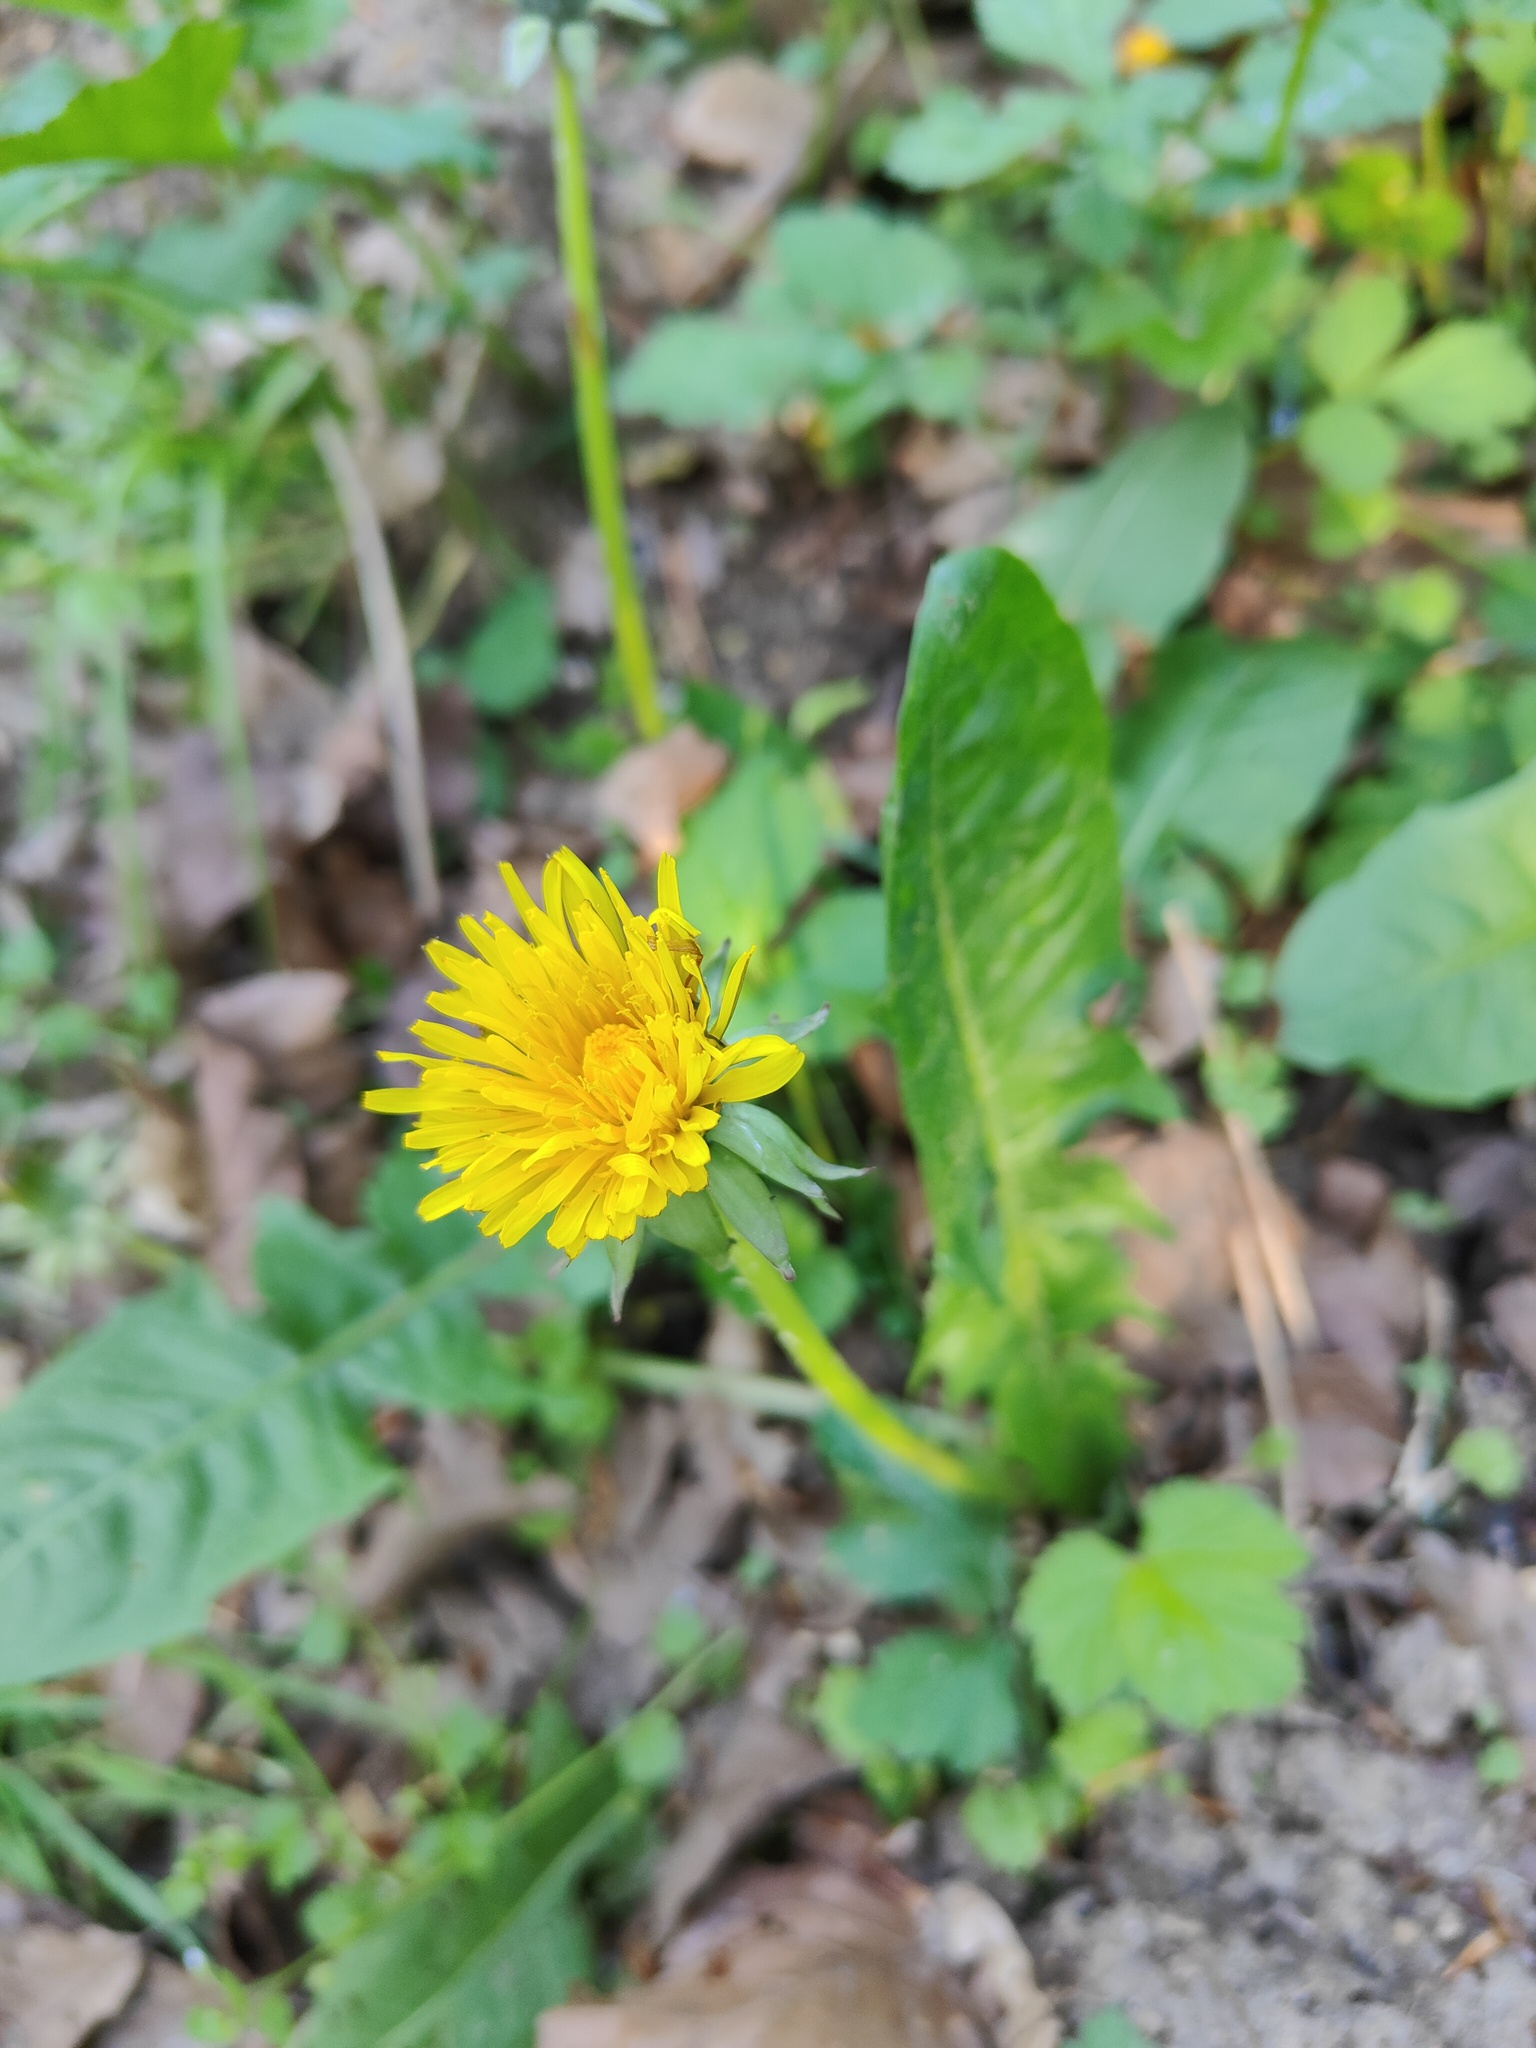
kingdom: Plantae
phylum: Tracheophyta
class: Magnoliopsida
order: Asterales
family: Asteraceae
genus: Taraxacum
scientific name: Taraxacum officinale
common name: Common dandelion
